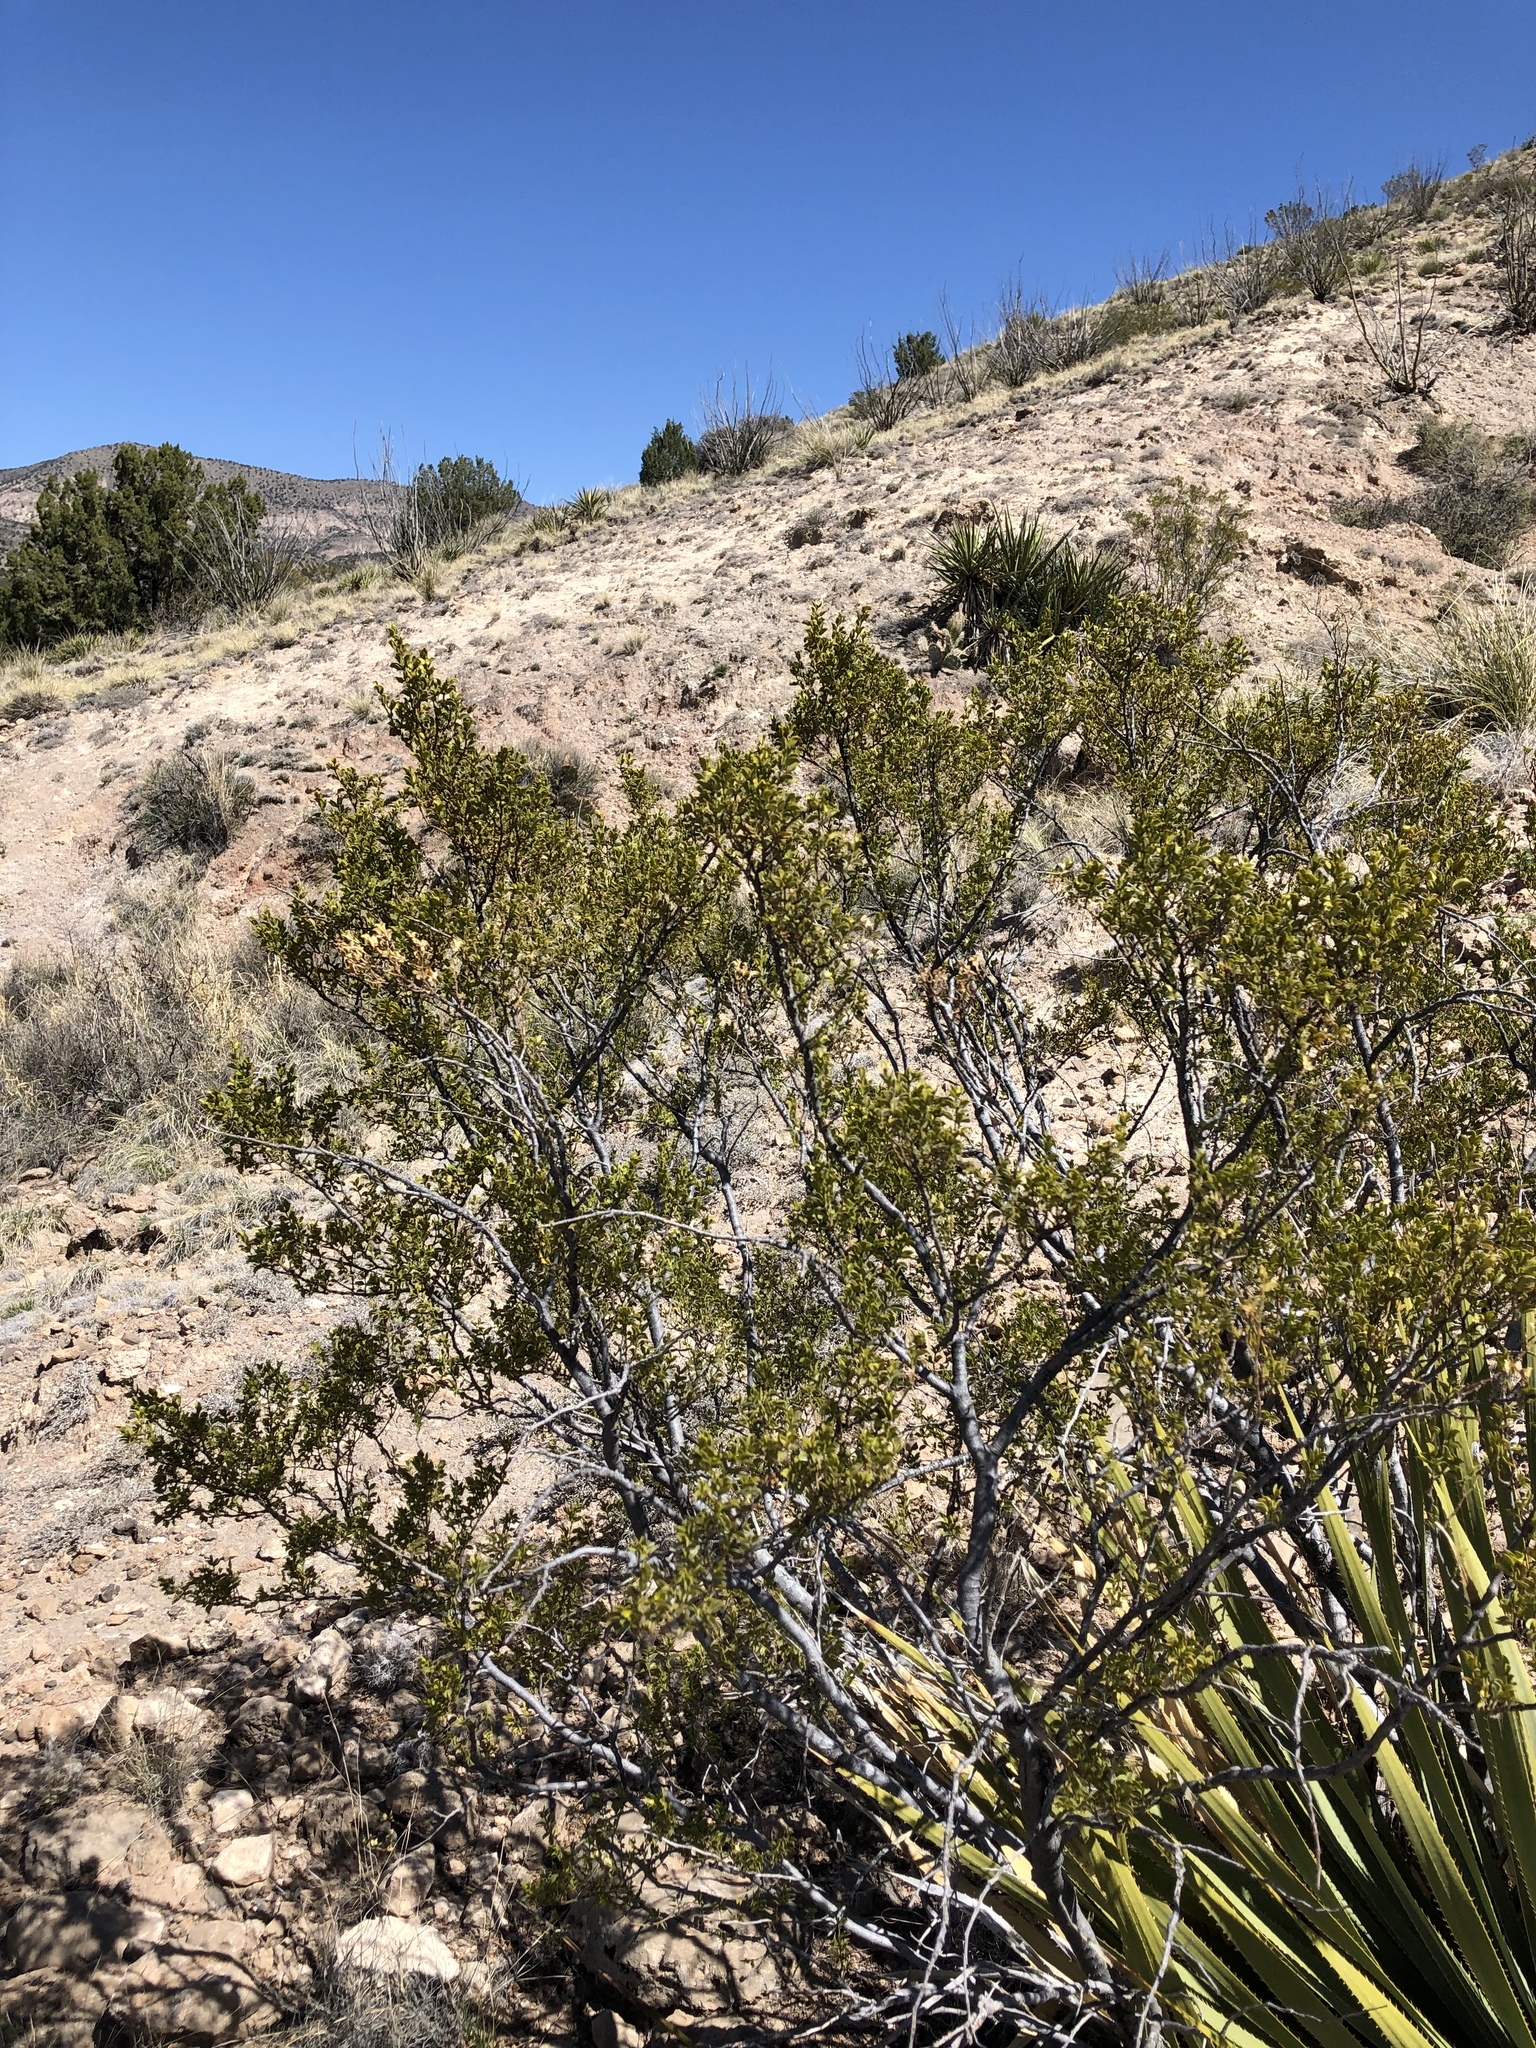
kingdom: Plantae
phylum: Tracheophyta
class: Magnoliopsida
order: Zygophyllales
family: Zygophyllaceae
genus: Larrea
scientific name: Larrea tridentata
